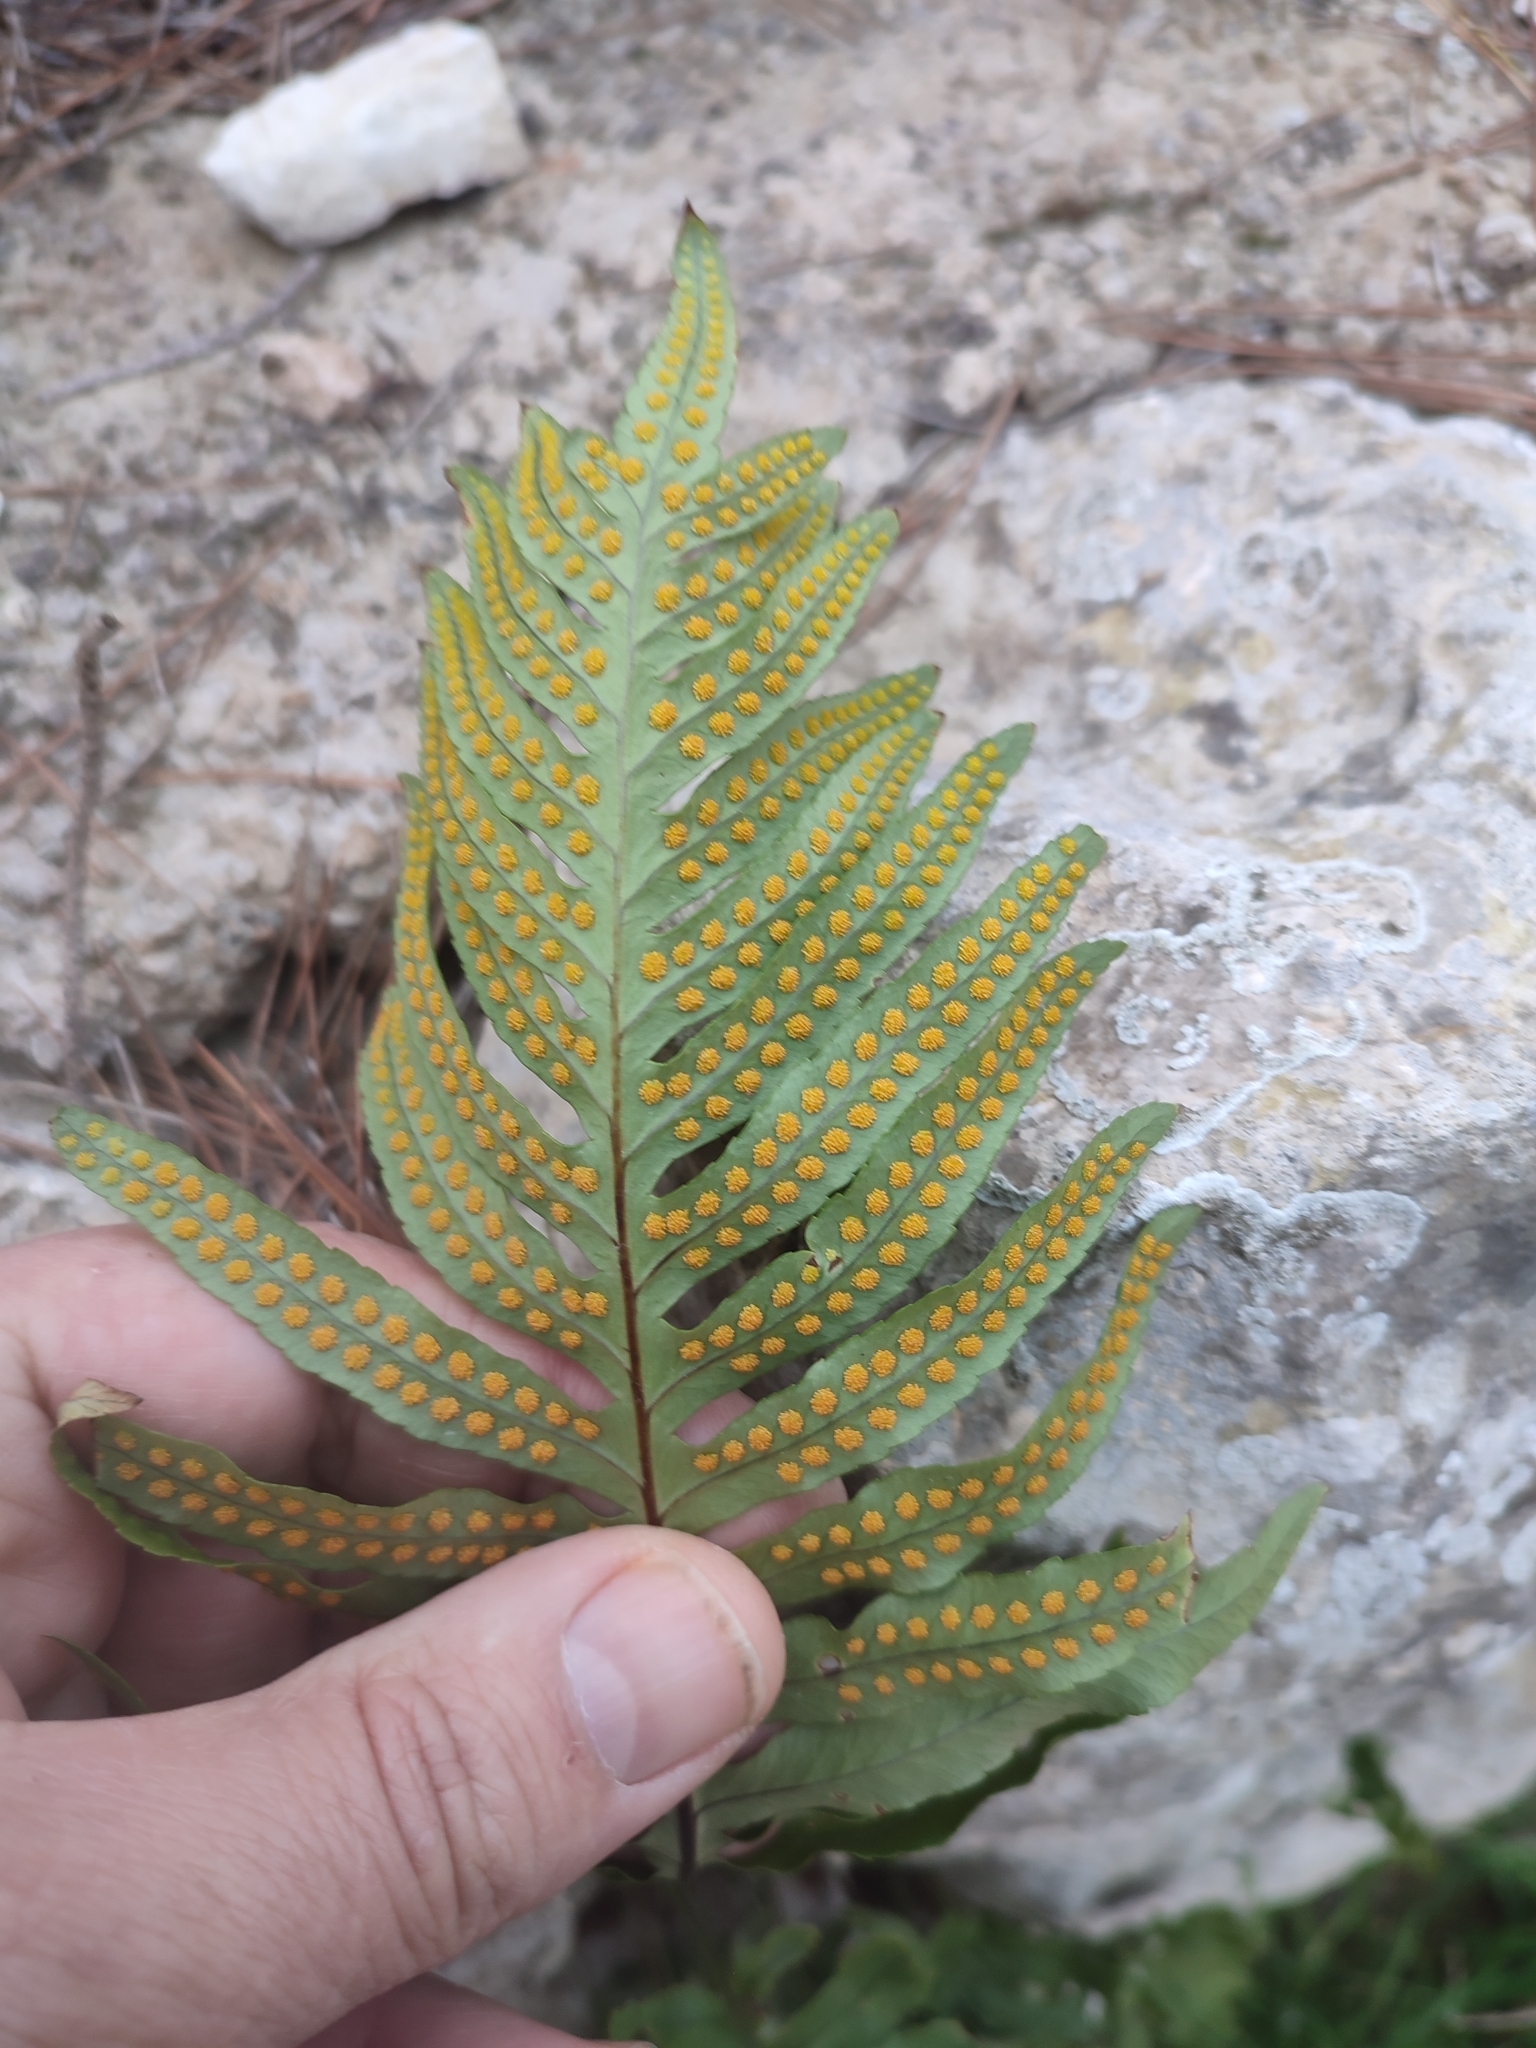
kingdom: Plantae
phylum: Tracheophyta
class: Polypodiopsida
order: Polypodiales
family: Polypodiaceae
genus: Polypodium
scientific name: Polypodium cambricum
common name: Southern polypody
